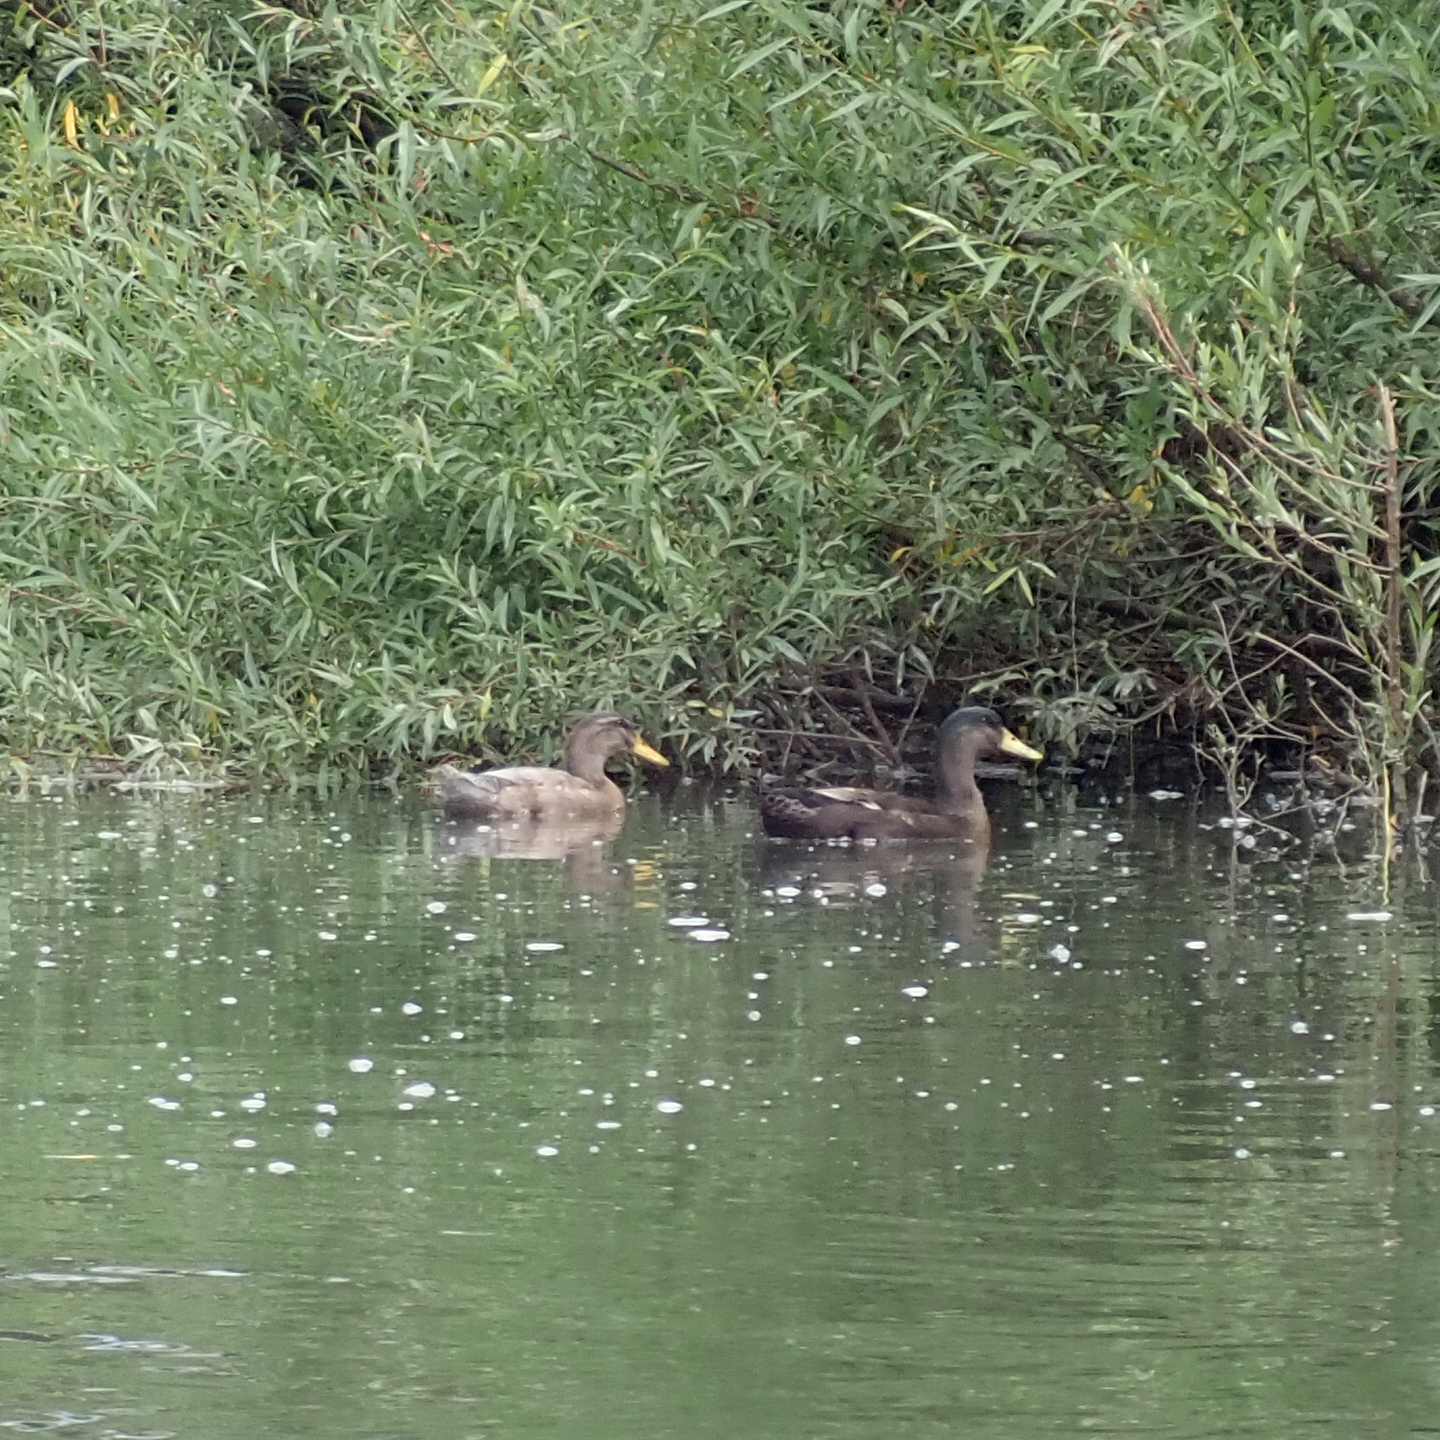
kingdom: Animalia
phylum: Chordata
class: Aves
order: Anseriformes
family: Anatidae
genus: Anas
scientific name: Anas platyrhynchos
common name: Mallard
